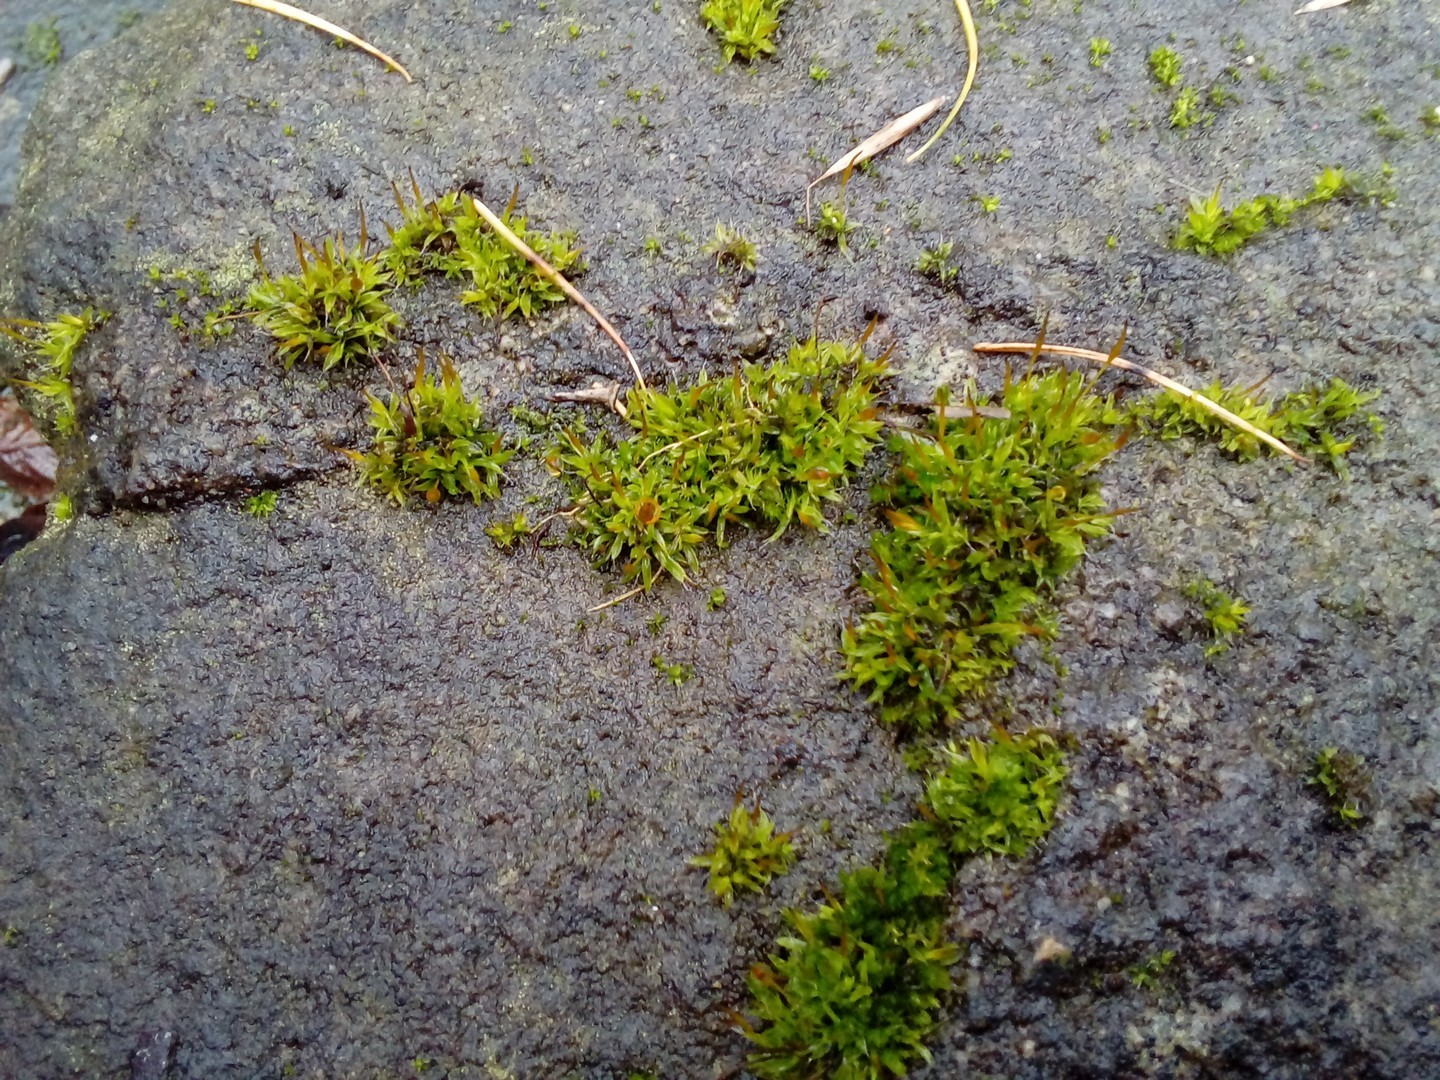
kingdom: Plantae
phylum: Bryophyta
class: Bryopsida
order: Pottiales
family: Pottiaceae
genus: Tortula
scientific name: Tortula muralis
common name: Wall screw-moss
